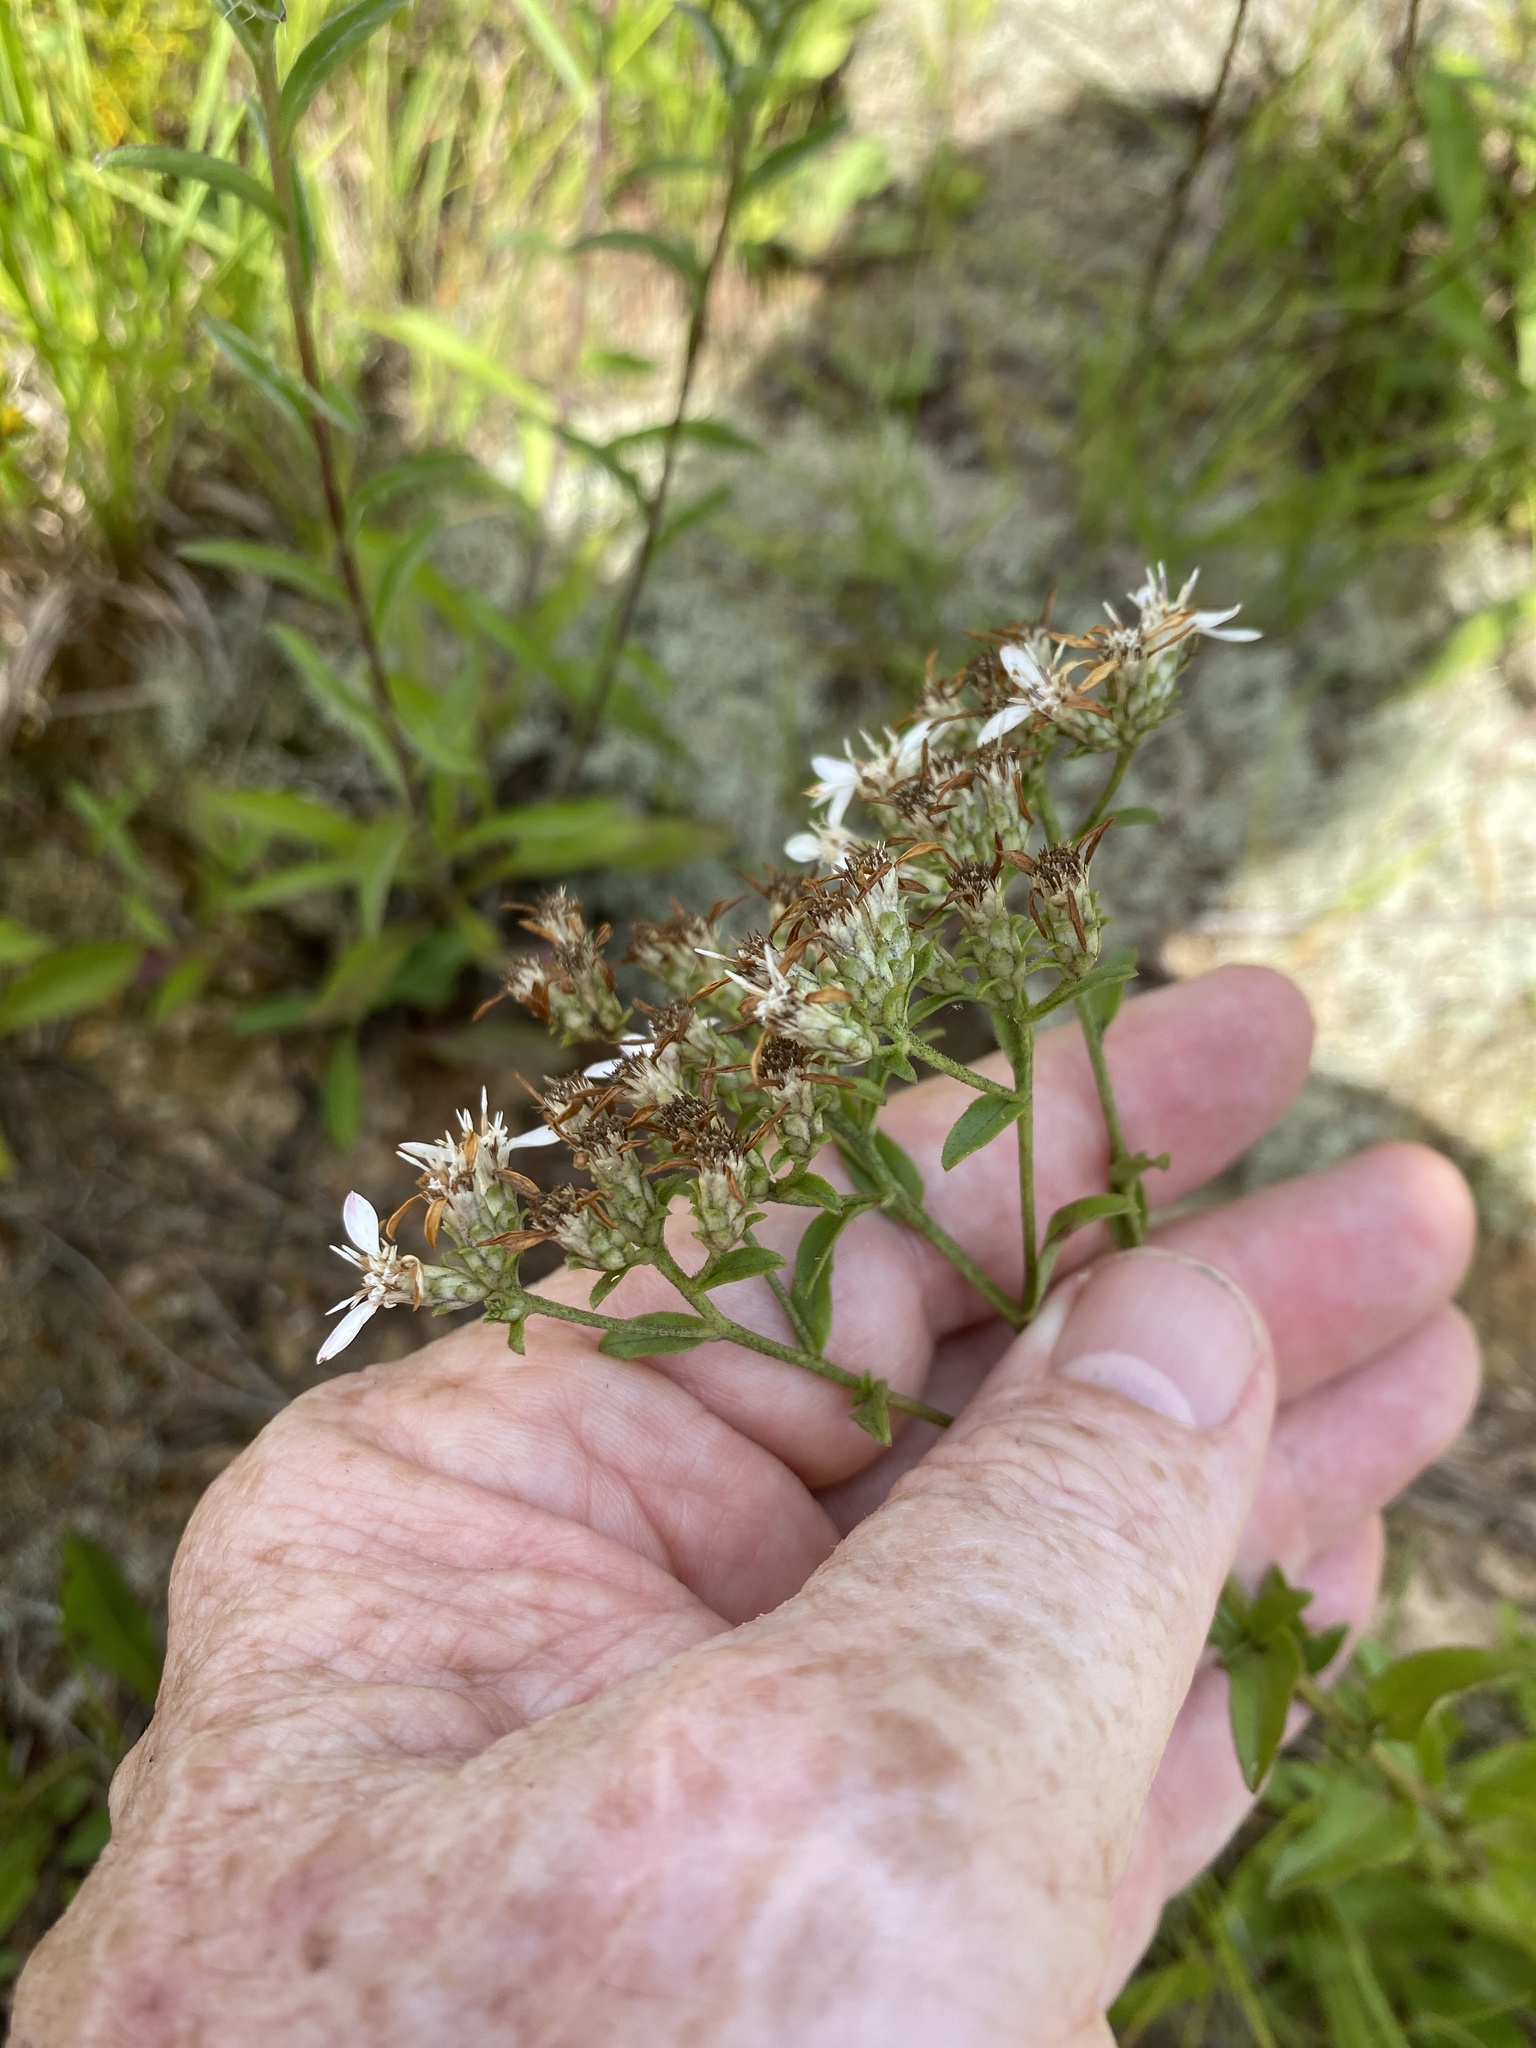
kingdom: Plantae
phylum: Tracheophyta
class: Magnoliopsida
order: Asterales
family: Asteraceae
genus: Sericocarpus
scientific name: Sericocarpus asteroides
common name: Toothed white-top aster
